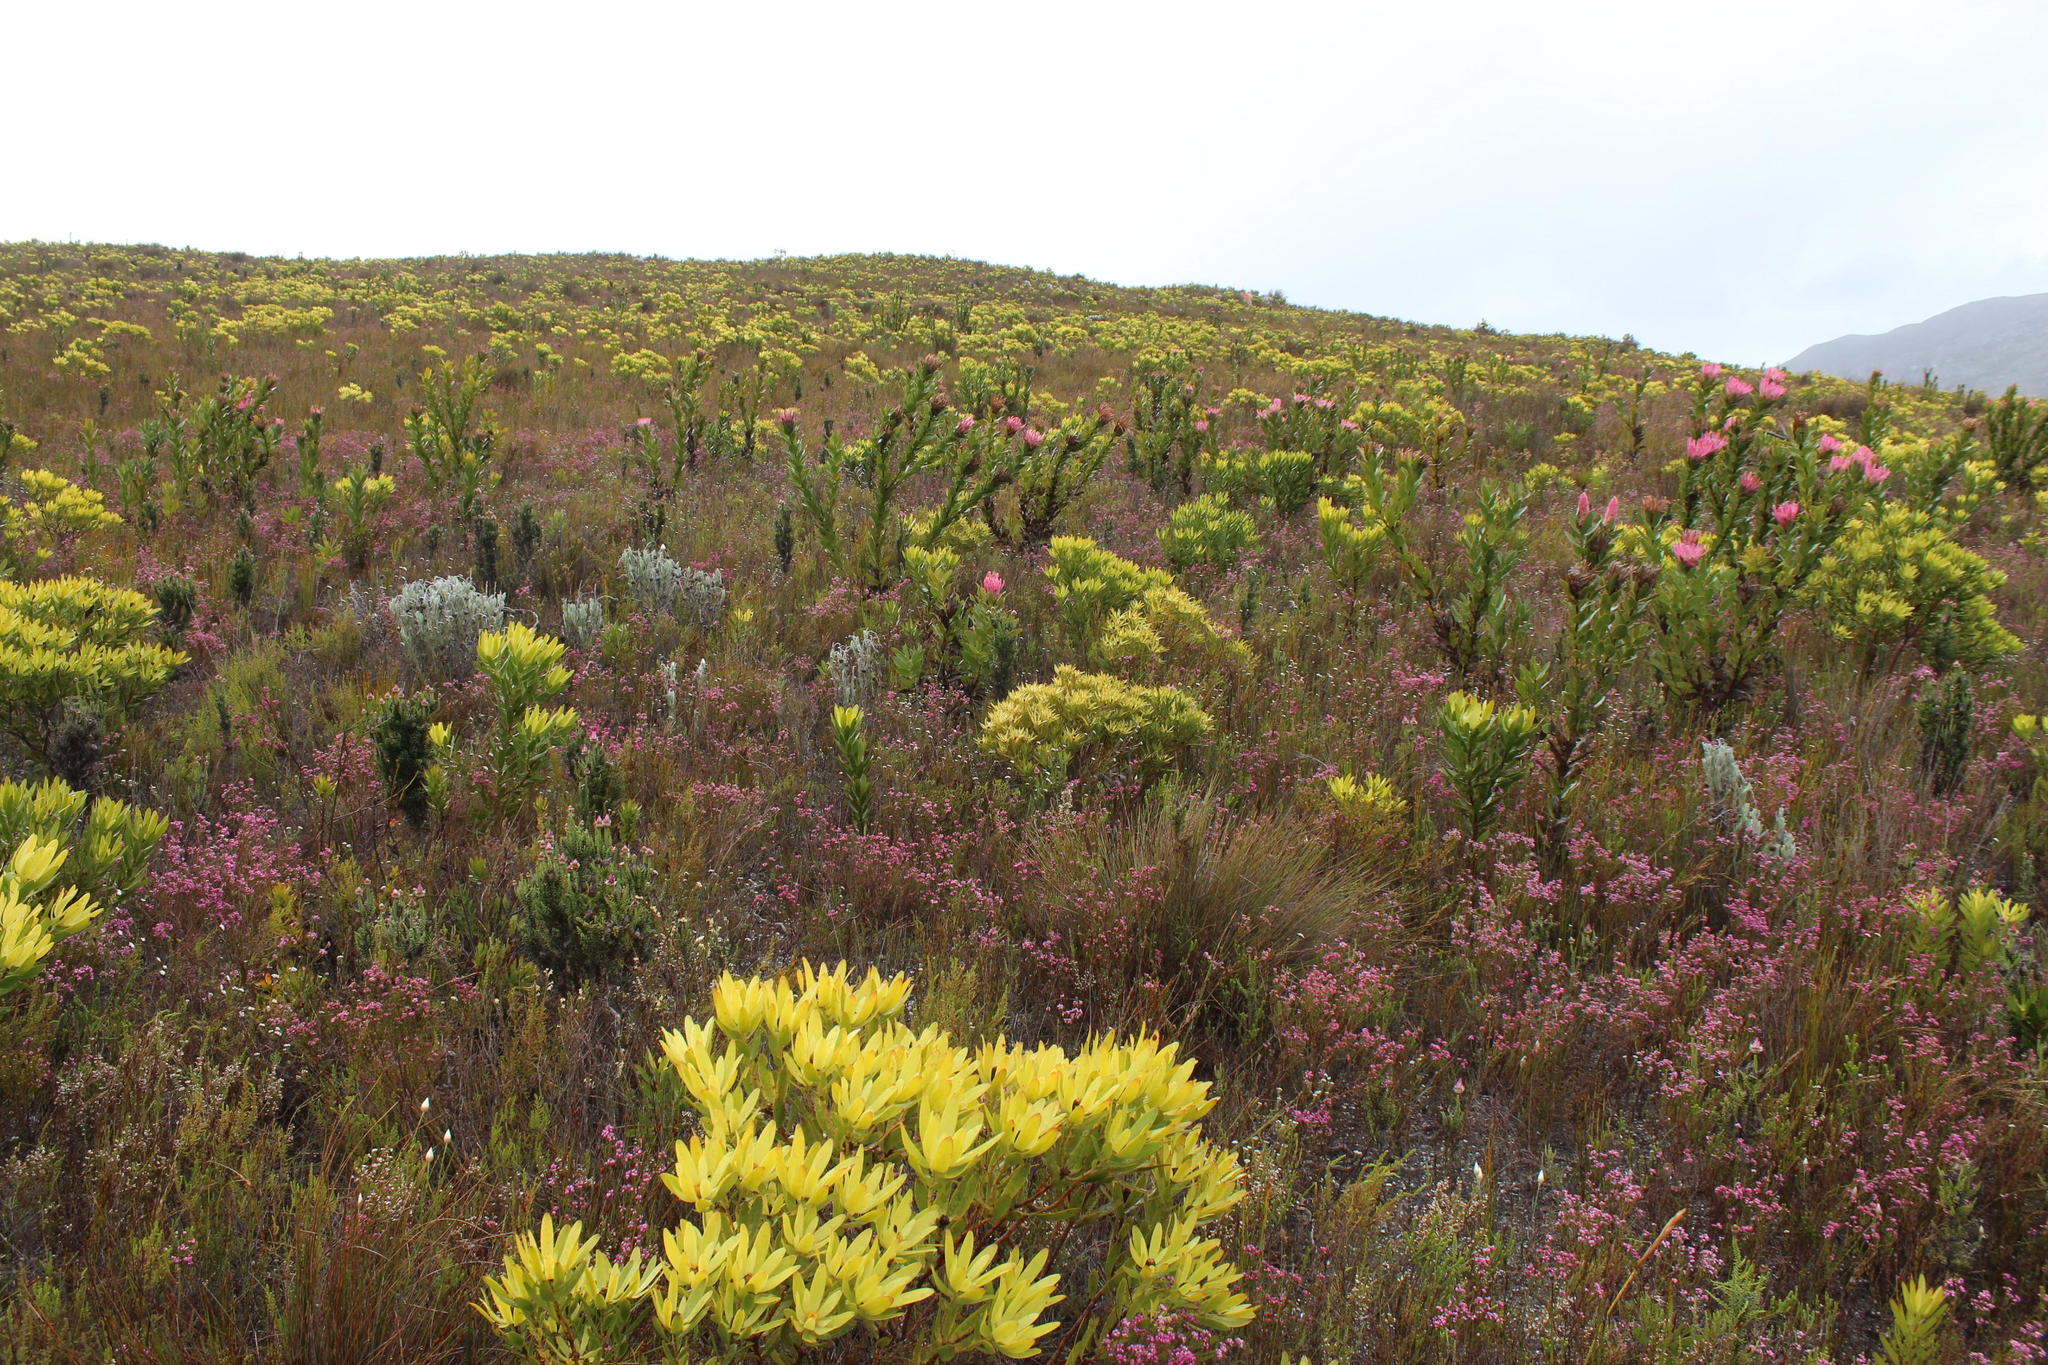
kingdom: Plantae
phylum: Tracheophyta
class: Magnoliopsida
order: Proteales
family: Proteaceae
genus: Leucadendron
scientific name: Leucadendron gandogeri
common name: Broad-leaf conebush
